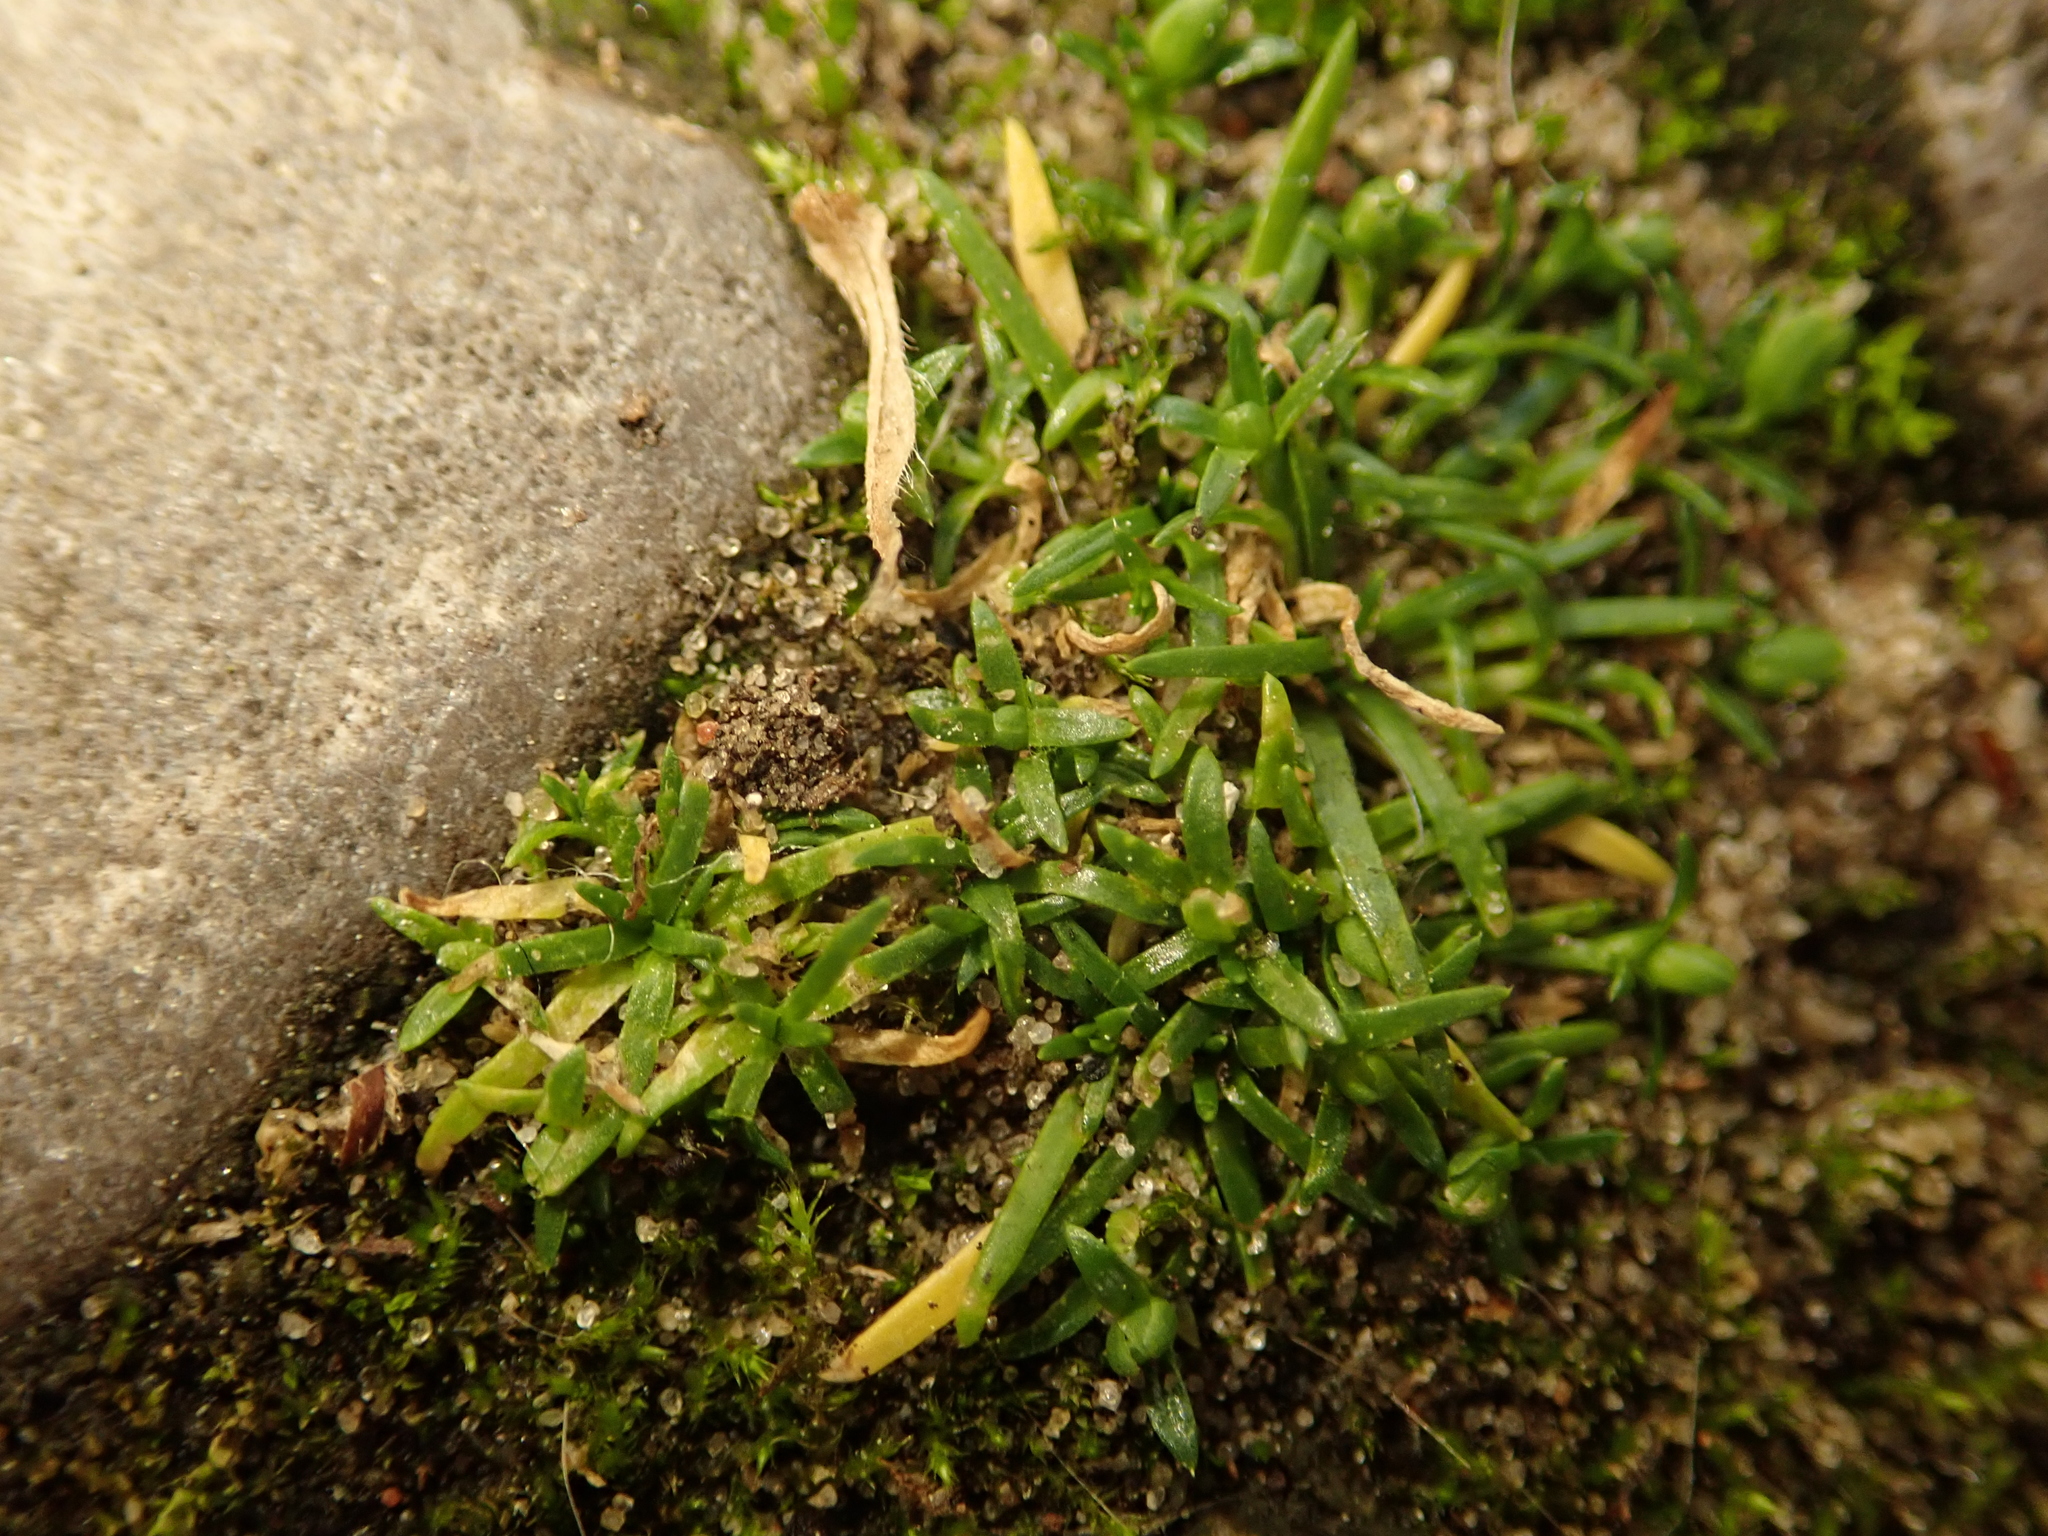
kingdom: Plantae
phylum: Tracheophyta
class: Magnoliopsida
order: Caryophyllales
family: Caryophyllaceae
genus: Sagina
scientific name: Sagina procumbens
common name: Procumbent pearlwort
